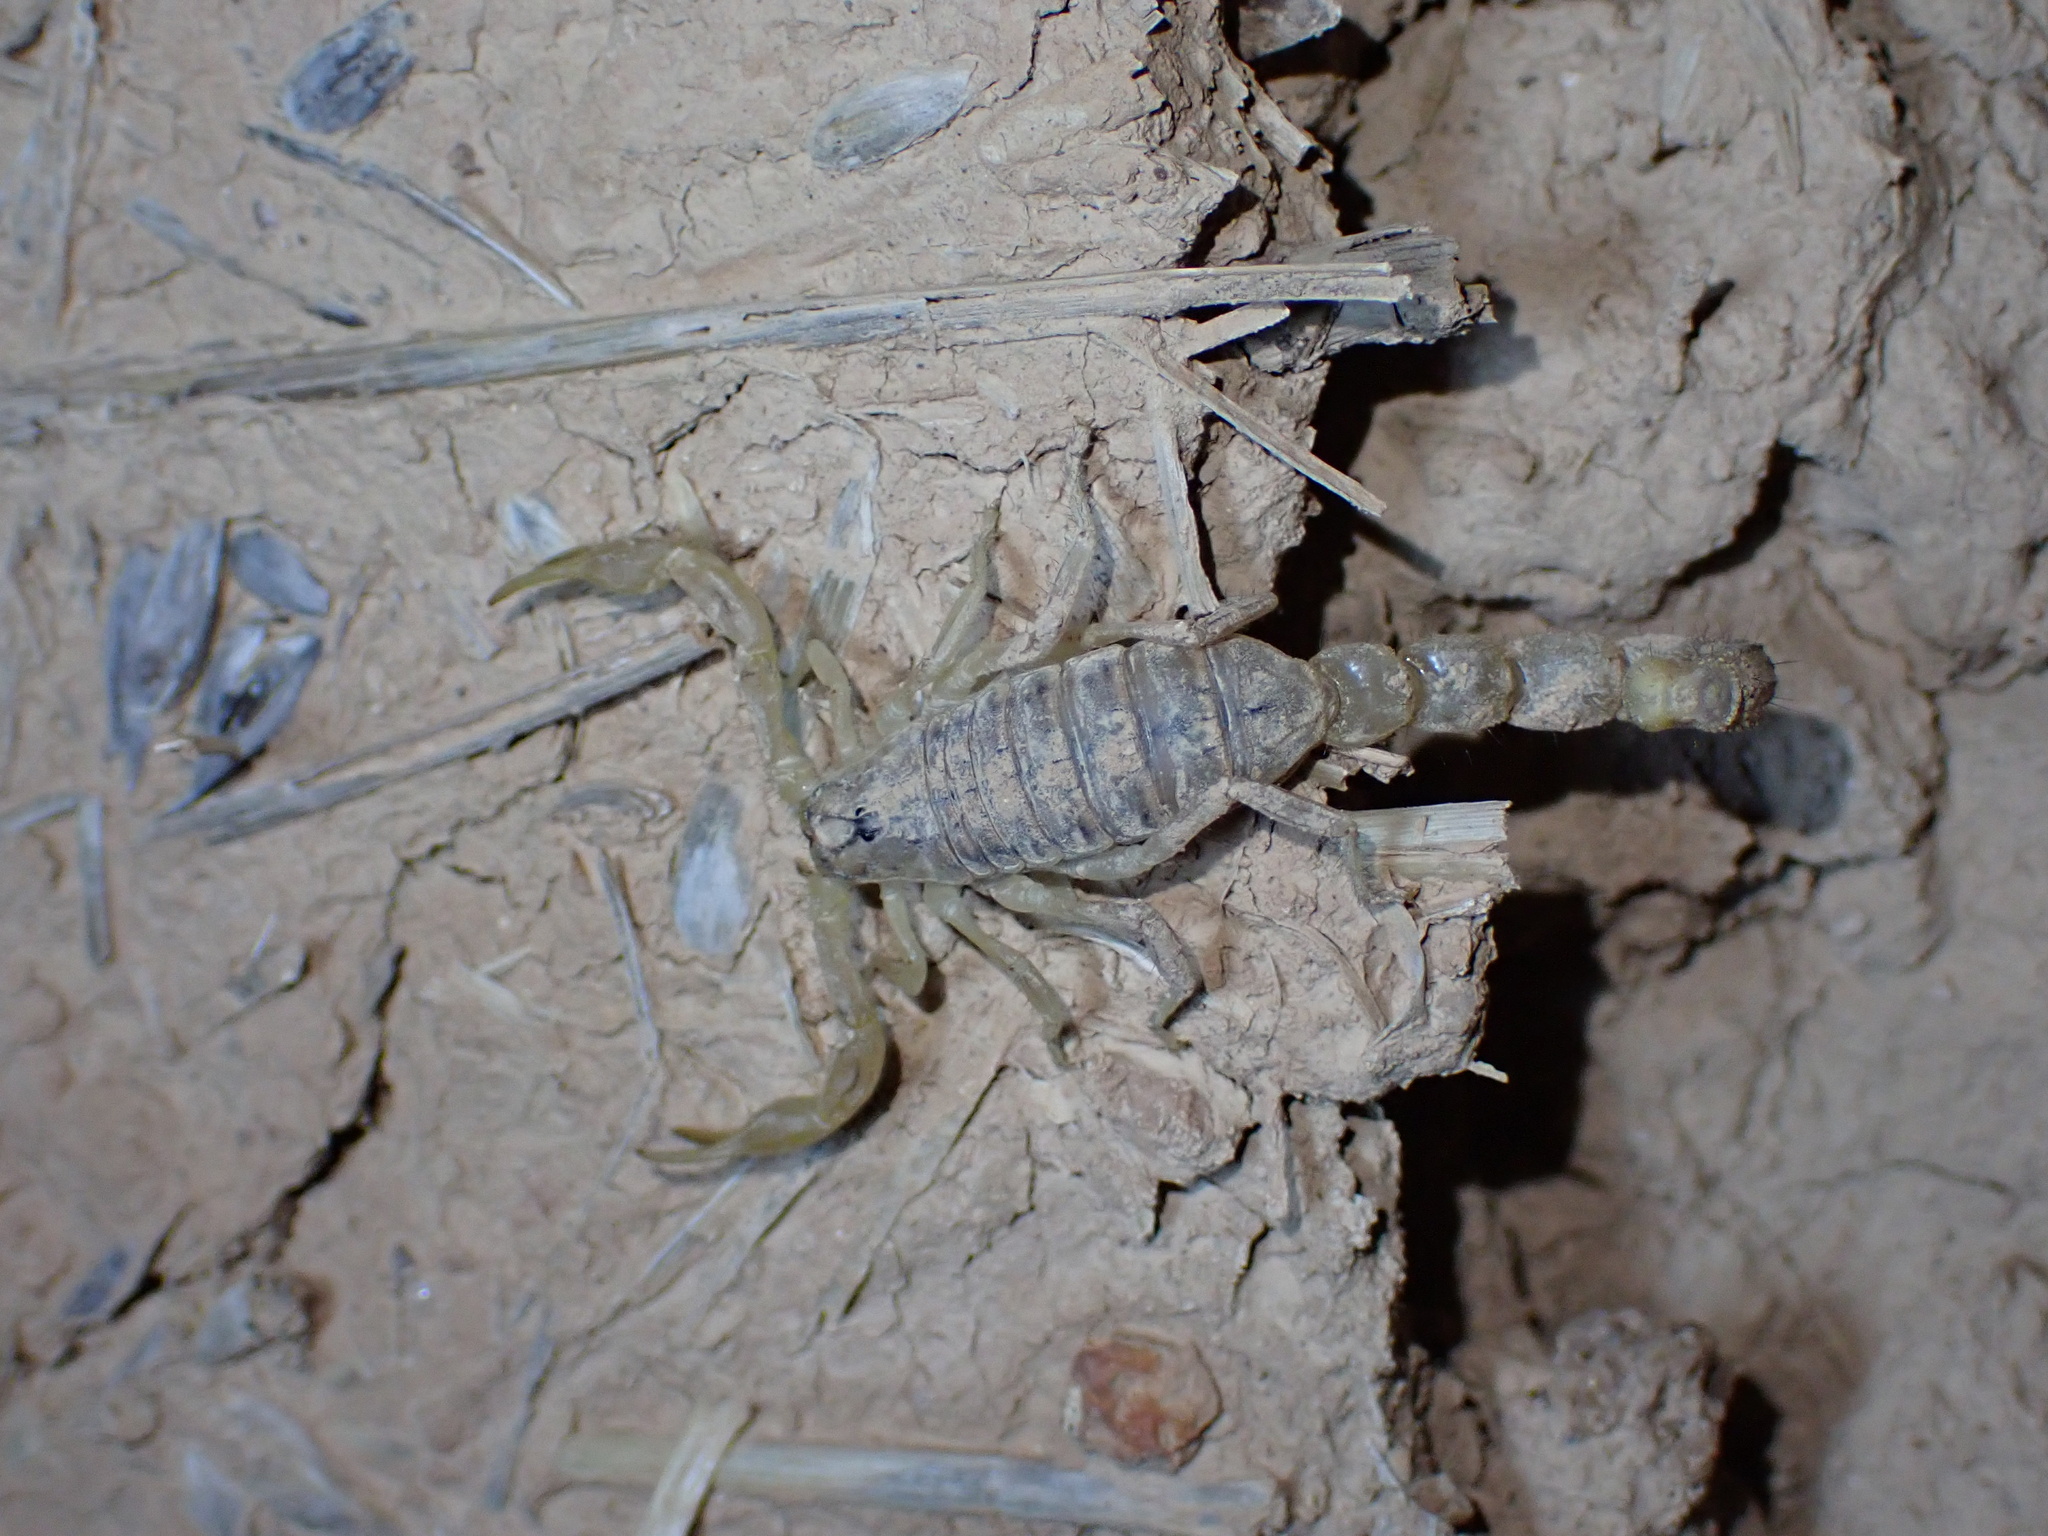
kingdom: Animalia
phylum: Arthropoda
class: Arachnida
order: Scorpiones
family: Buthidae
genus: Mesobuthus
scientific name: Mesobuthus crucittii
